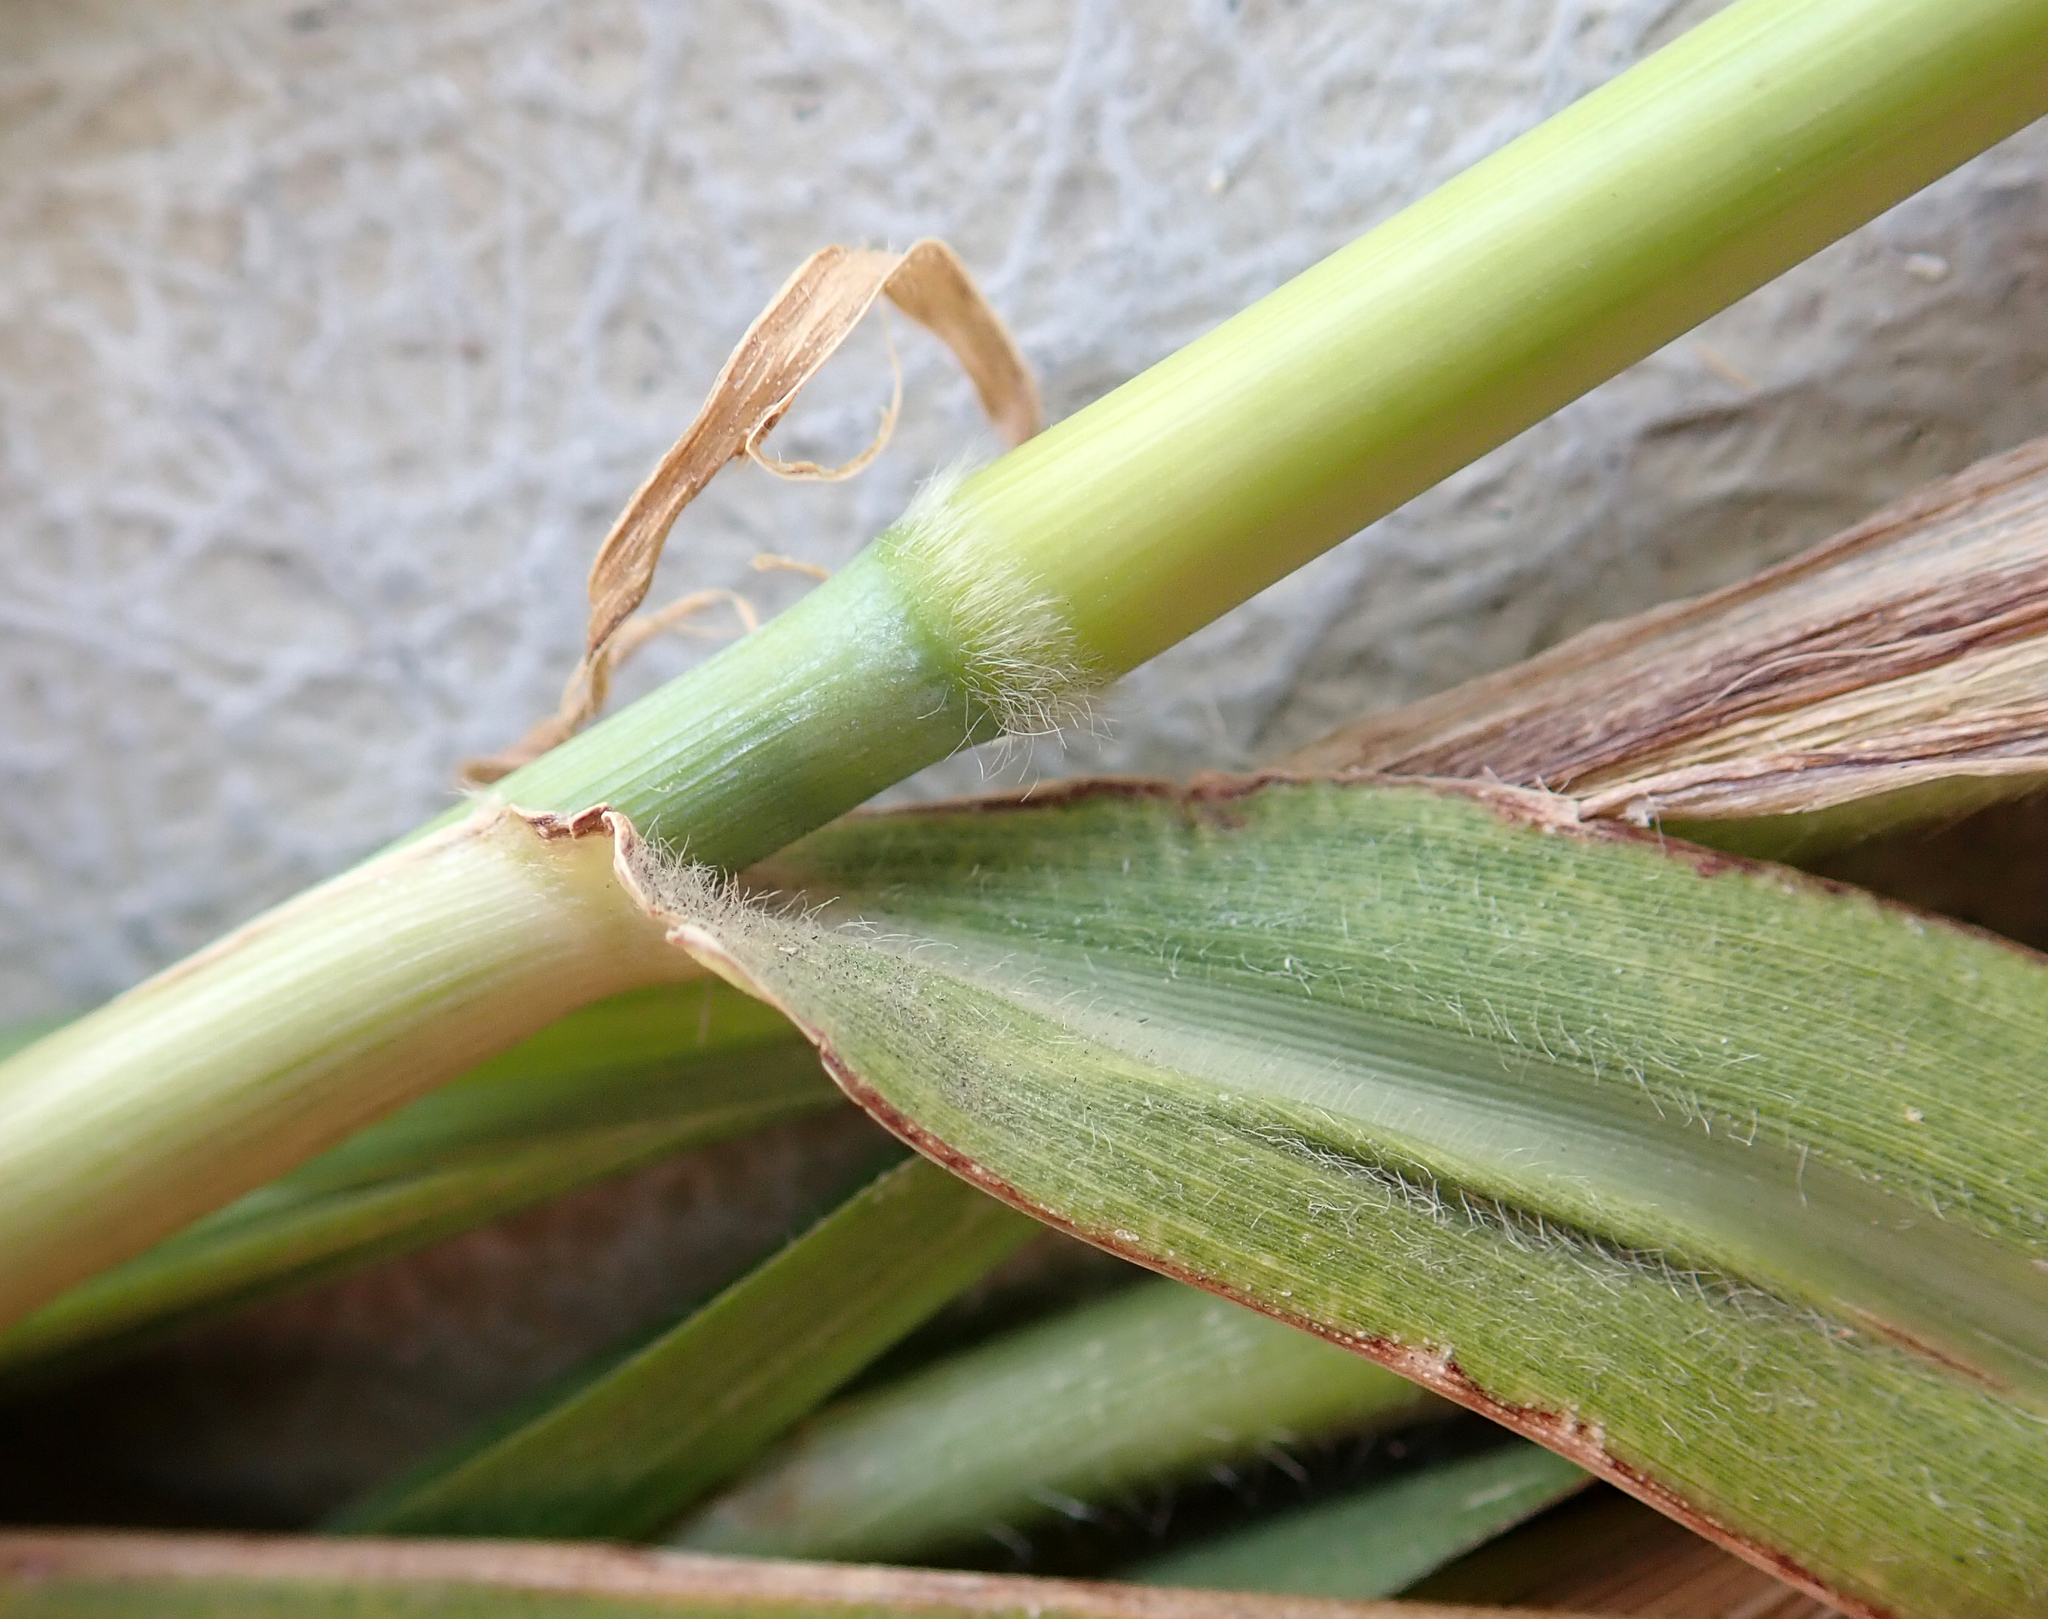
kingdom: Plantae
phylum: Tracheophyta
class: Liliopsida
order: Poales
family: Poaceae
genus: Cenchrus
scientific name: Cenchrus purpureus
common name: Elephant grass
